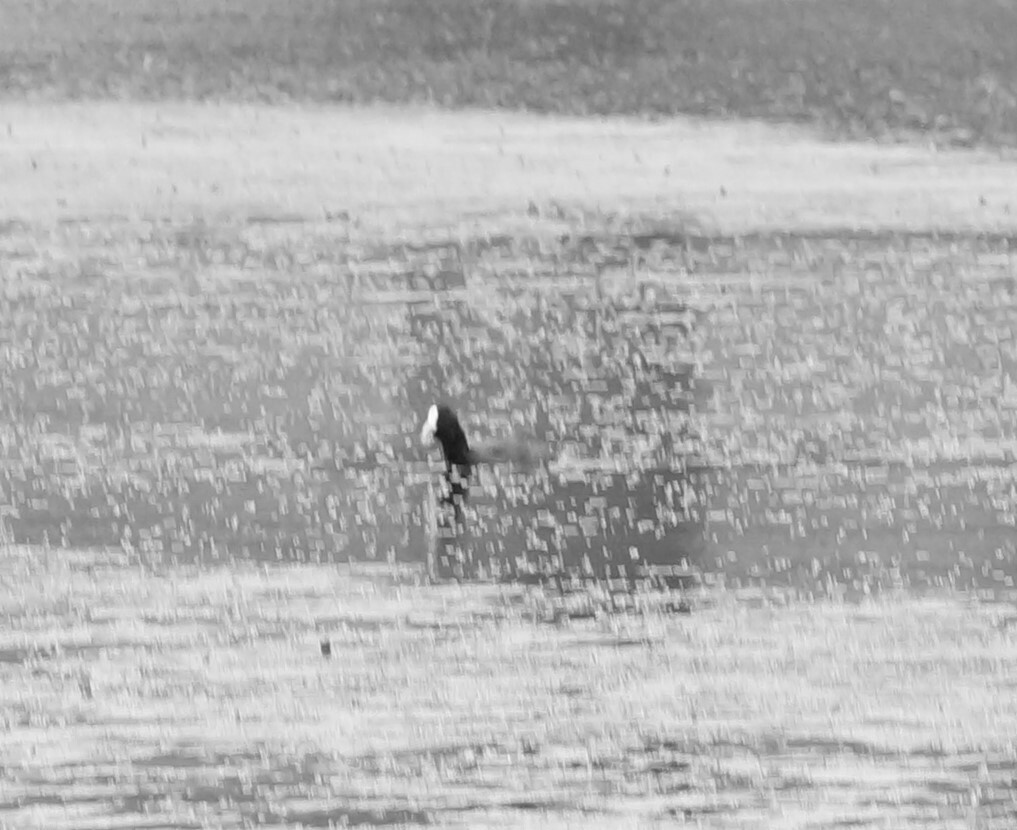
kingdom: Animalia
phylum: Chordata
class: Aves
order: Gruiformes
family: Rallidae
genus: Fulica
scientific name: Fulica atra
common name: Eurasian coot
